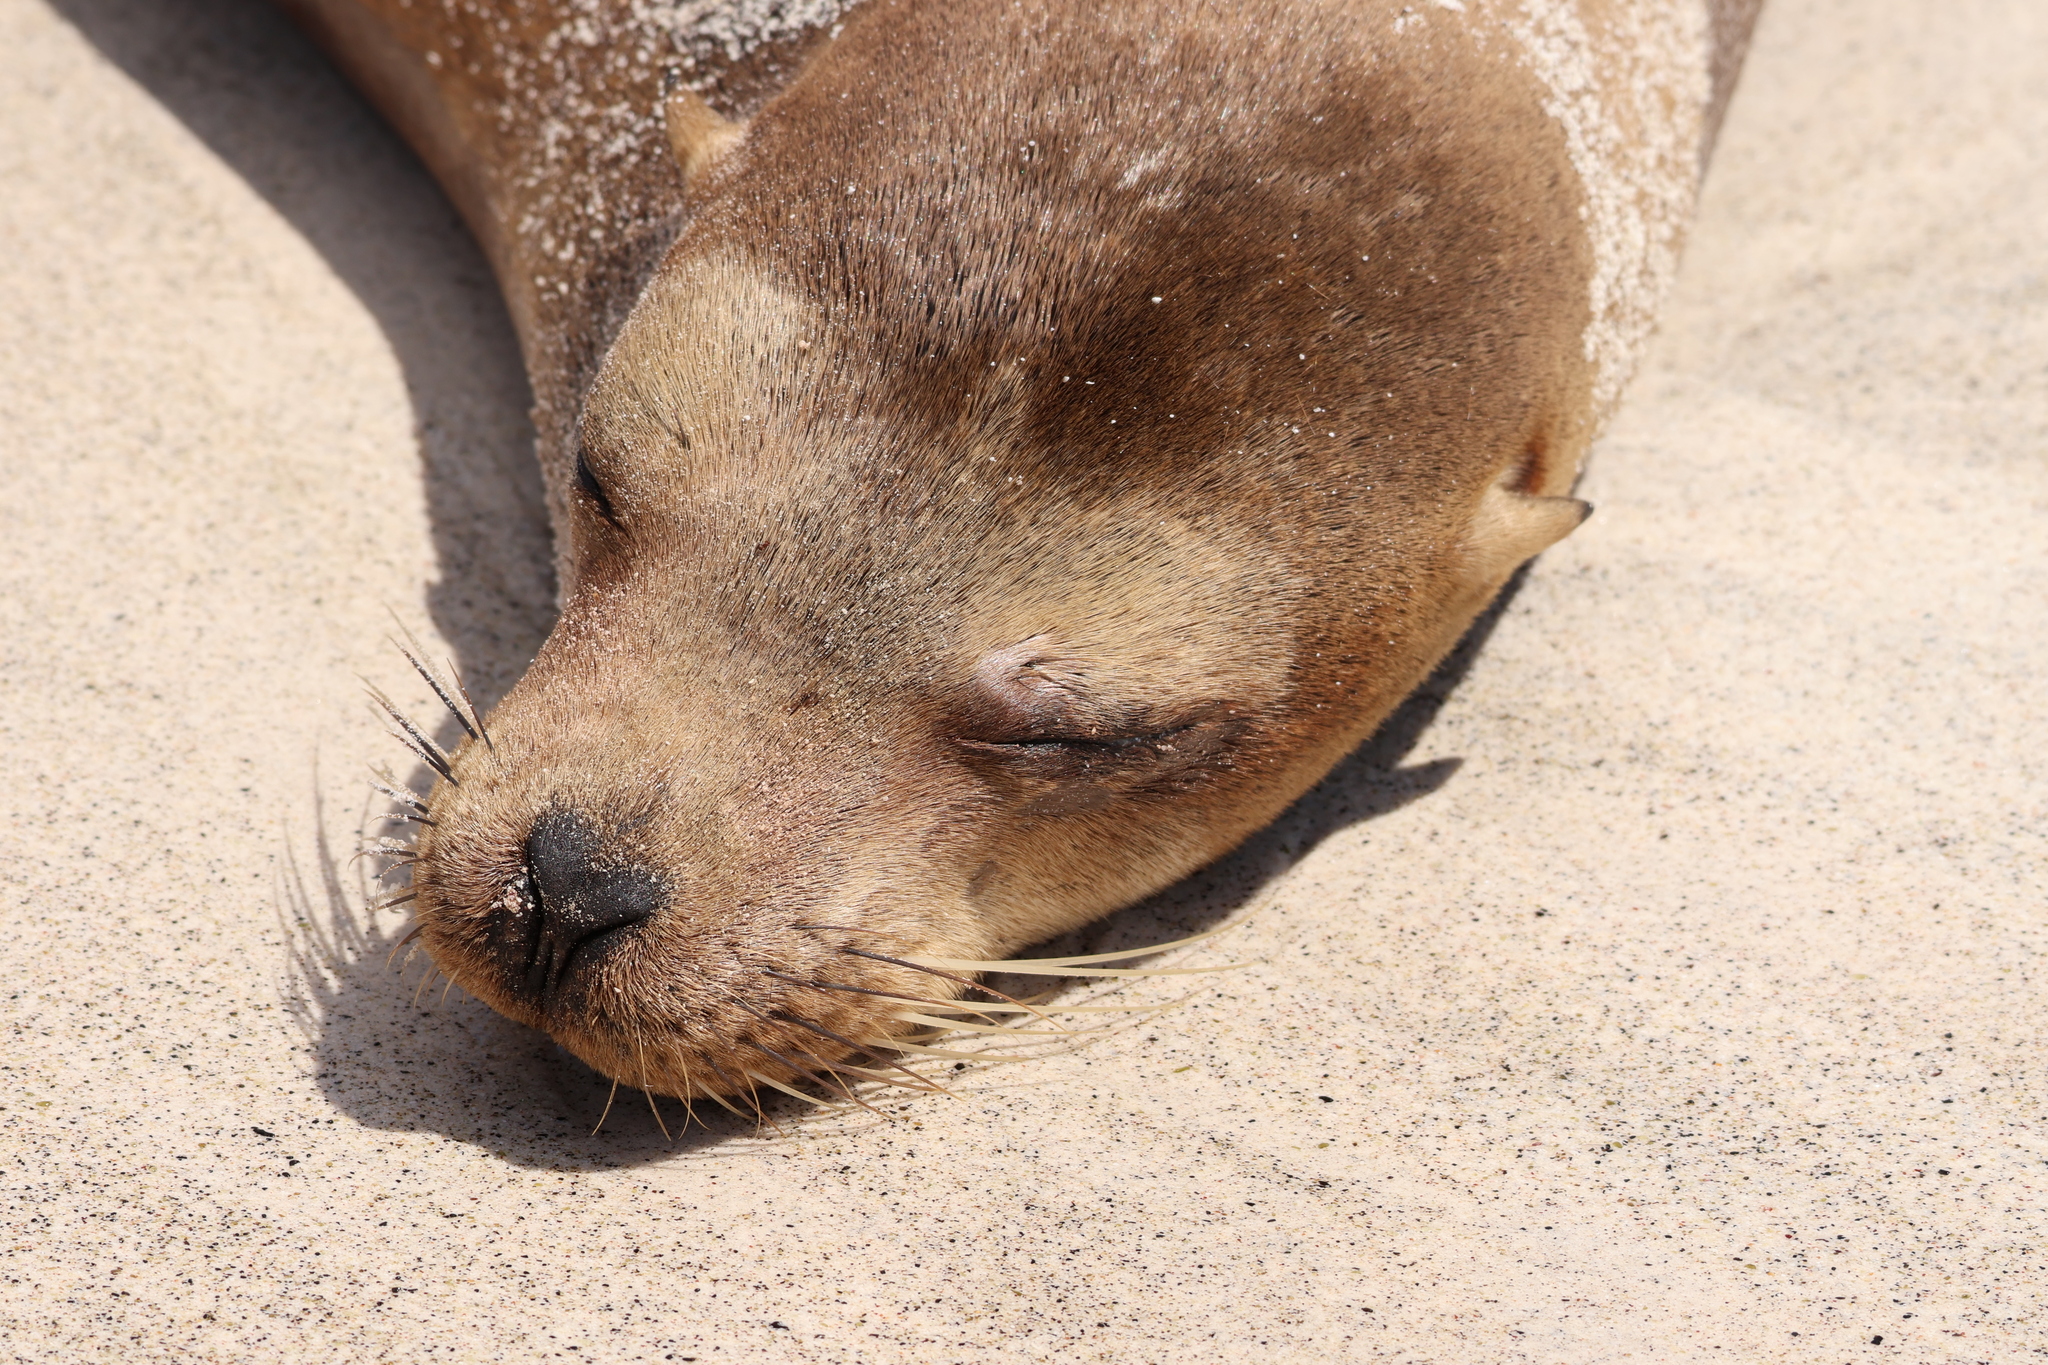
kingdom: Animalia
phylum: Chordata
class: Mammalia
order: Carnivora
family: Otariidae
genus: Zalophus
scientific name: Zalophus wollebaeki
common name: Galapagos sea lion
